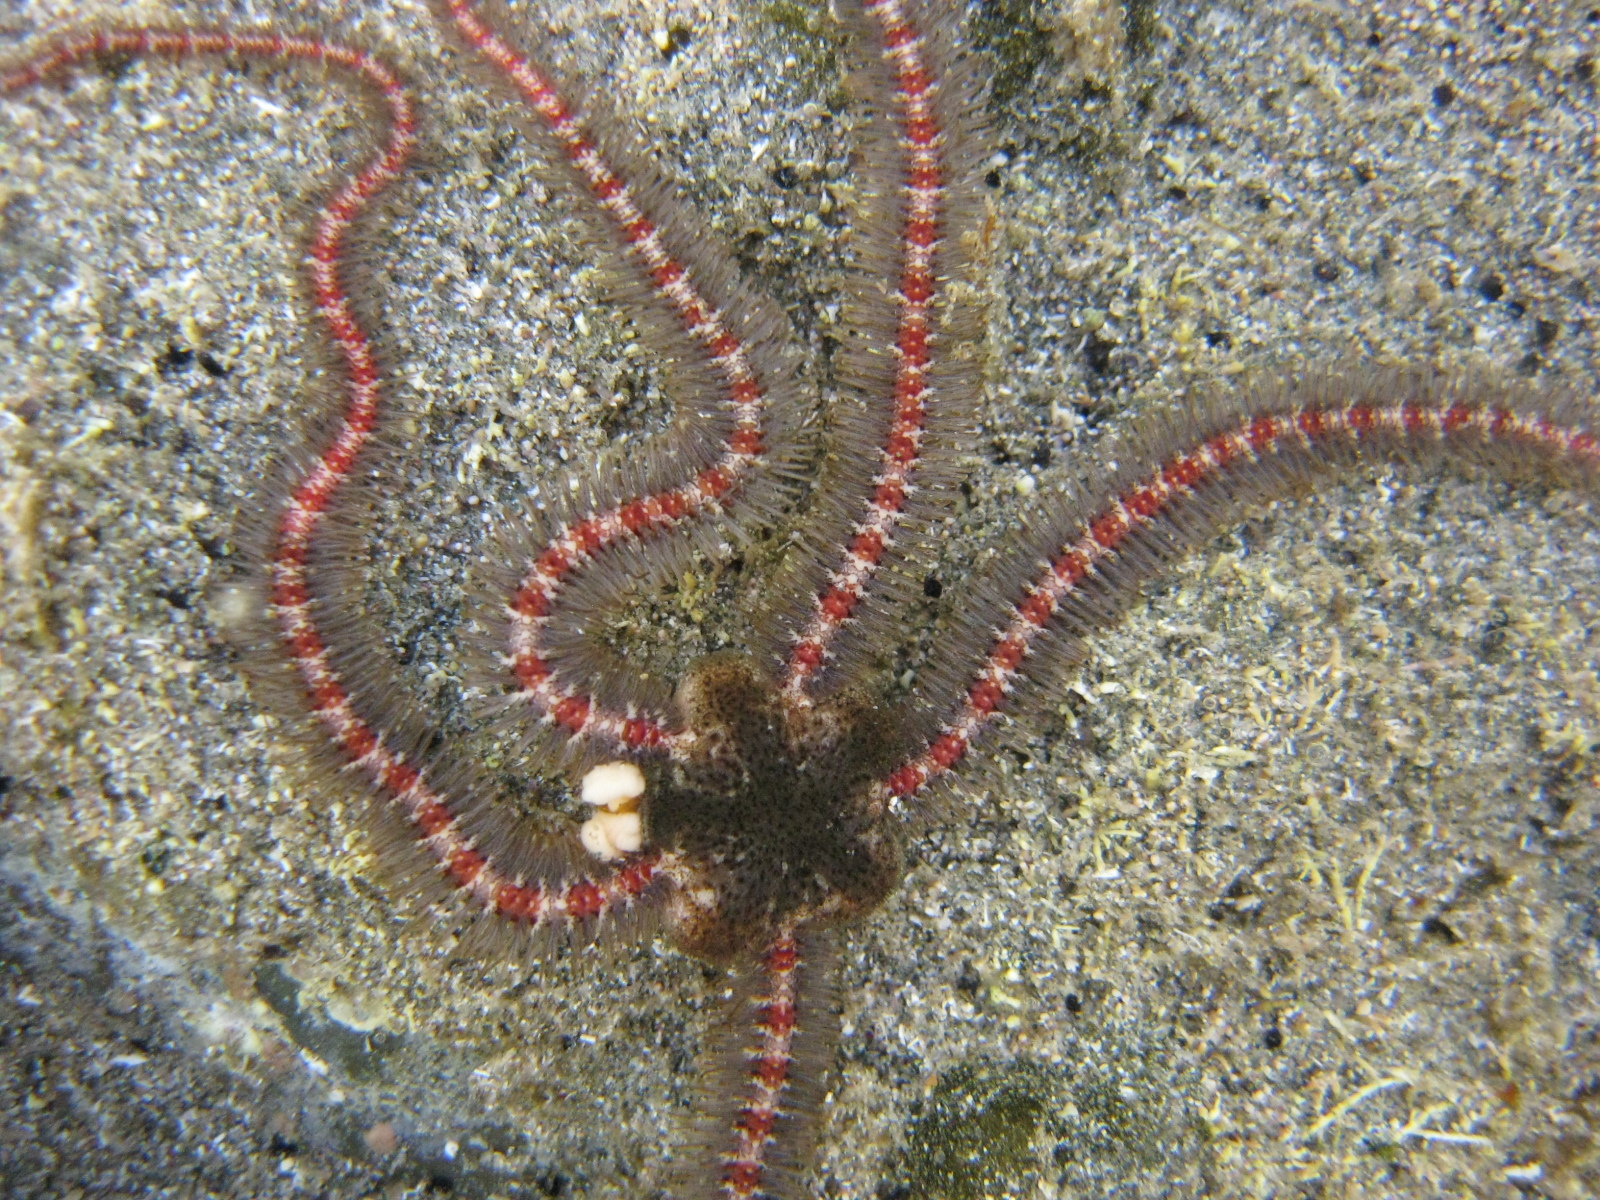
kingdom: Animalia
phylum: Echinodermata
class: Ophiuroidea
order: Amphilepidida
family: Ophiotrichidae
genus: Macrophiothrix
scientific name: Macrophiothrix oliveri
